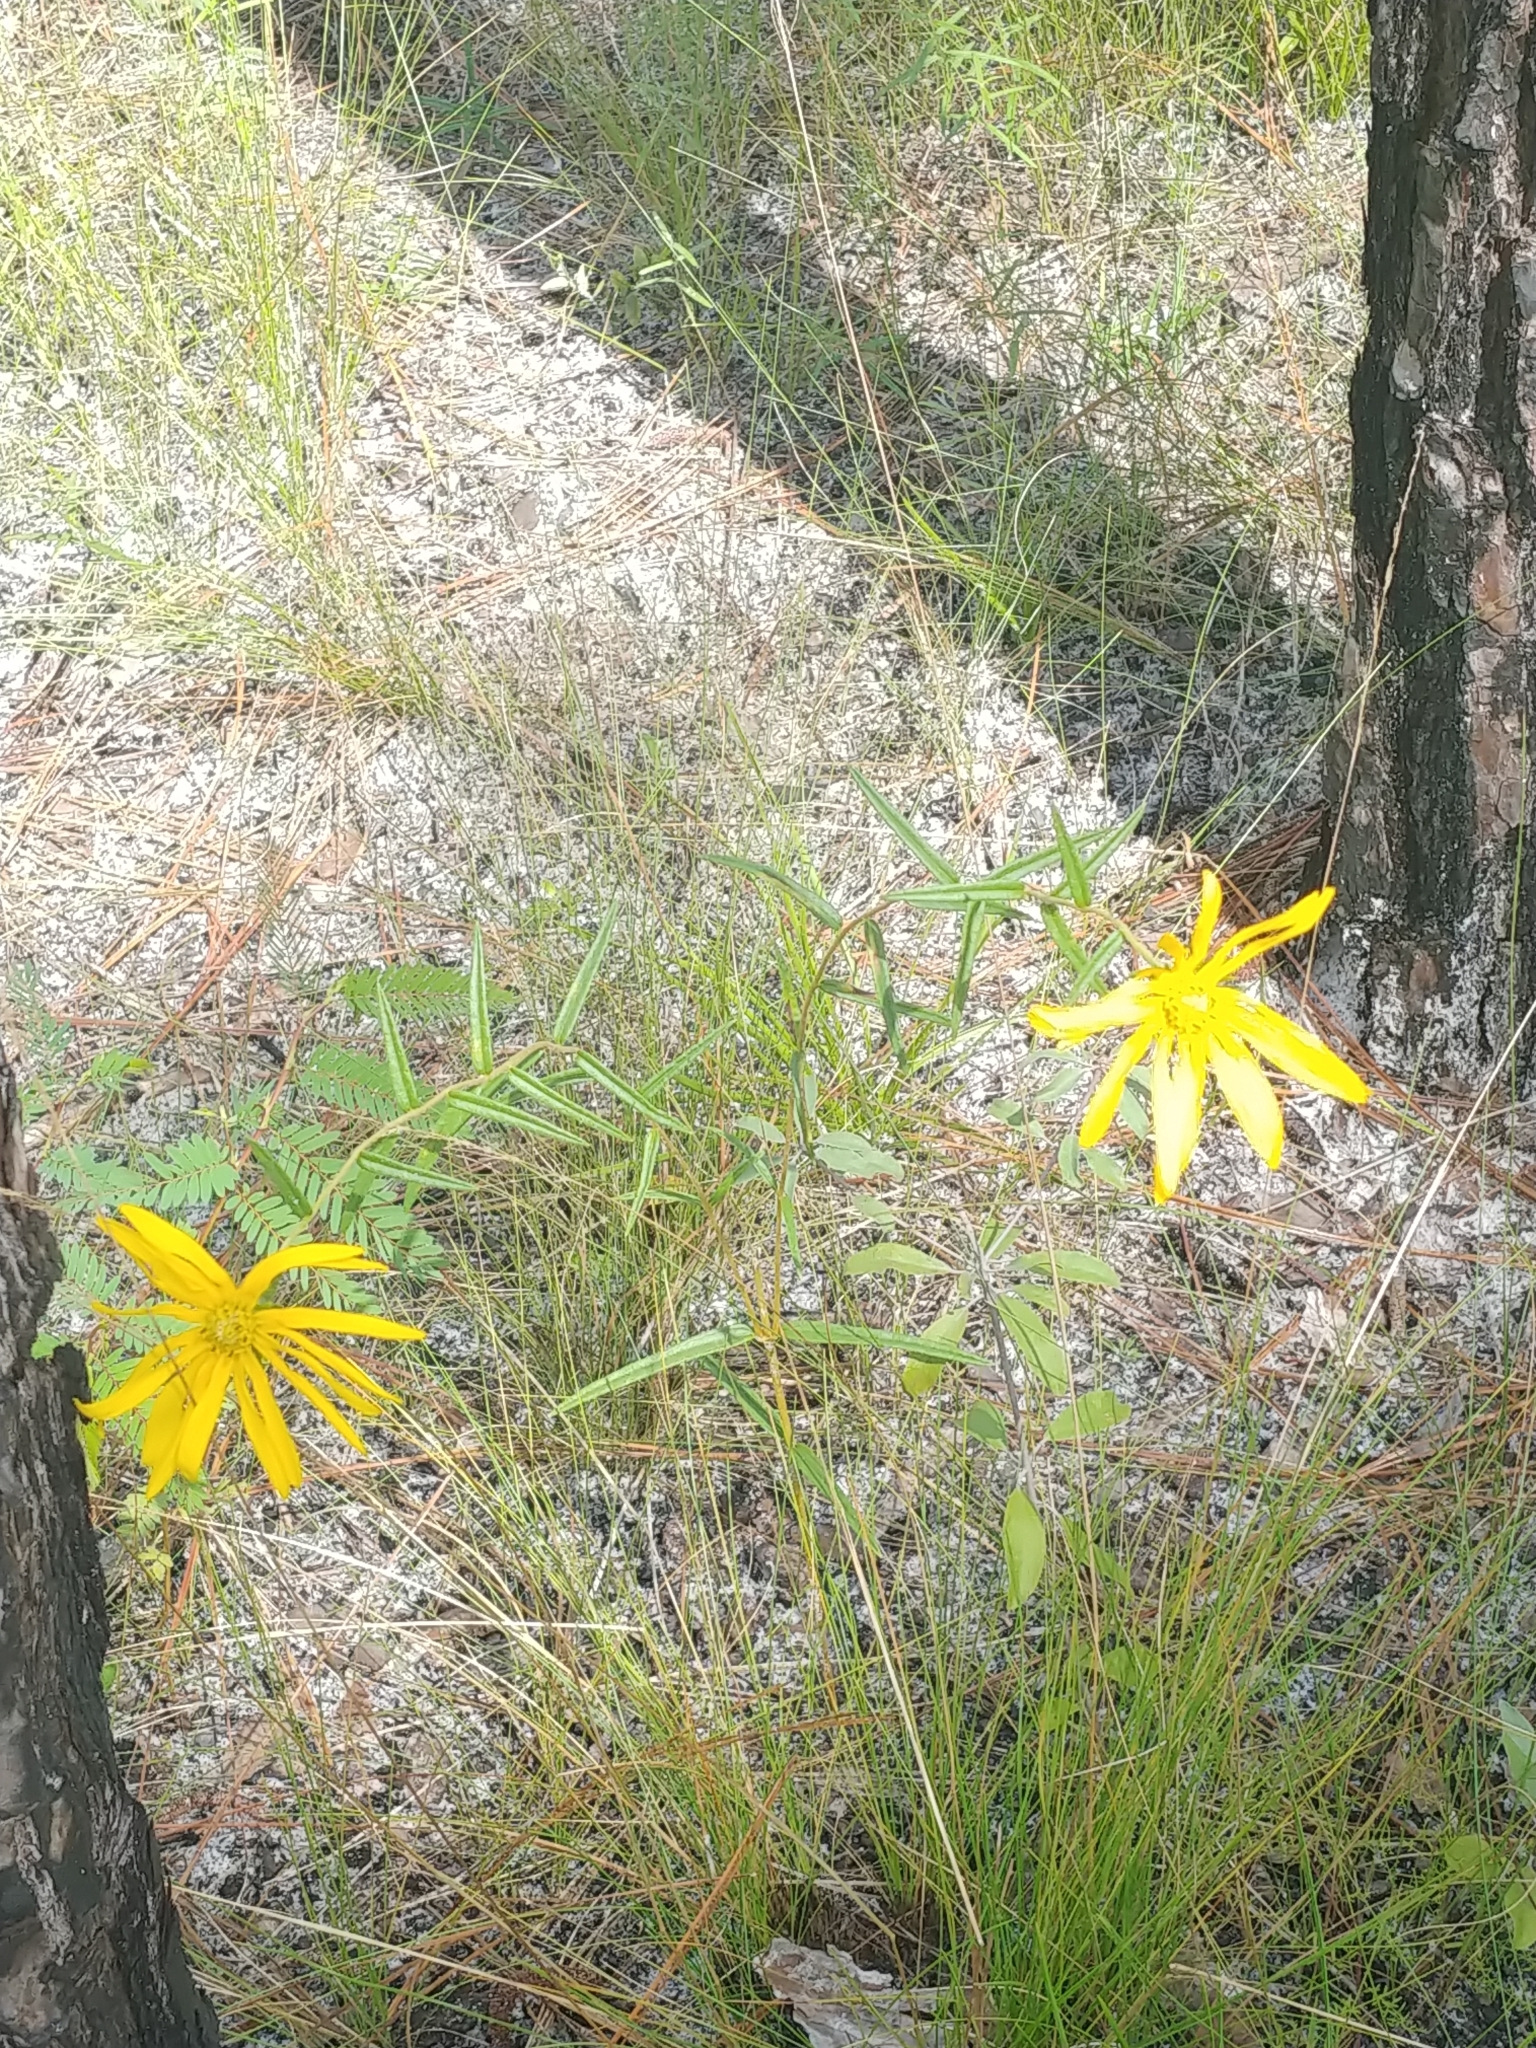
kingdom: Plantae
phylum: Tracheophyta
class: Magnoliopsida
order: Asterales
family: Asteraceae
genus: Phoebanthus
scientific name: Phoebanthus grandiflora
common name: Florida false sunflower
